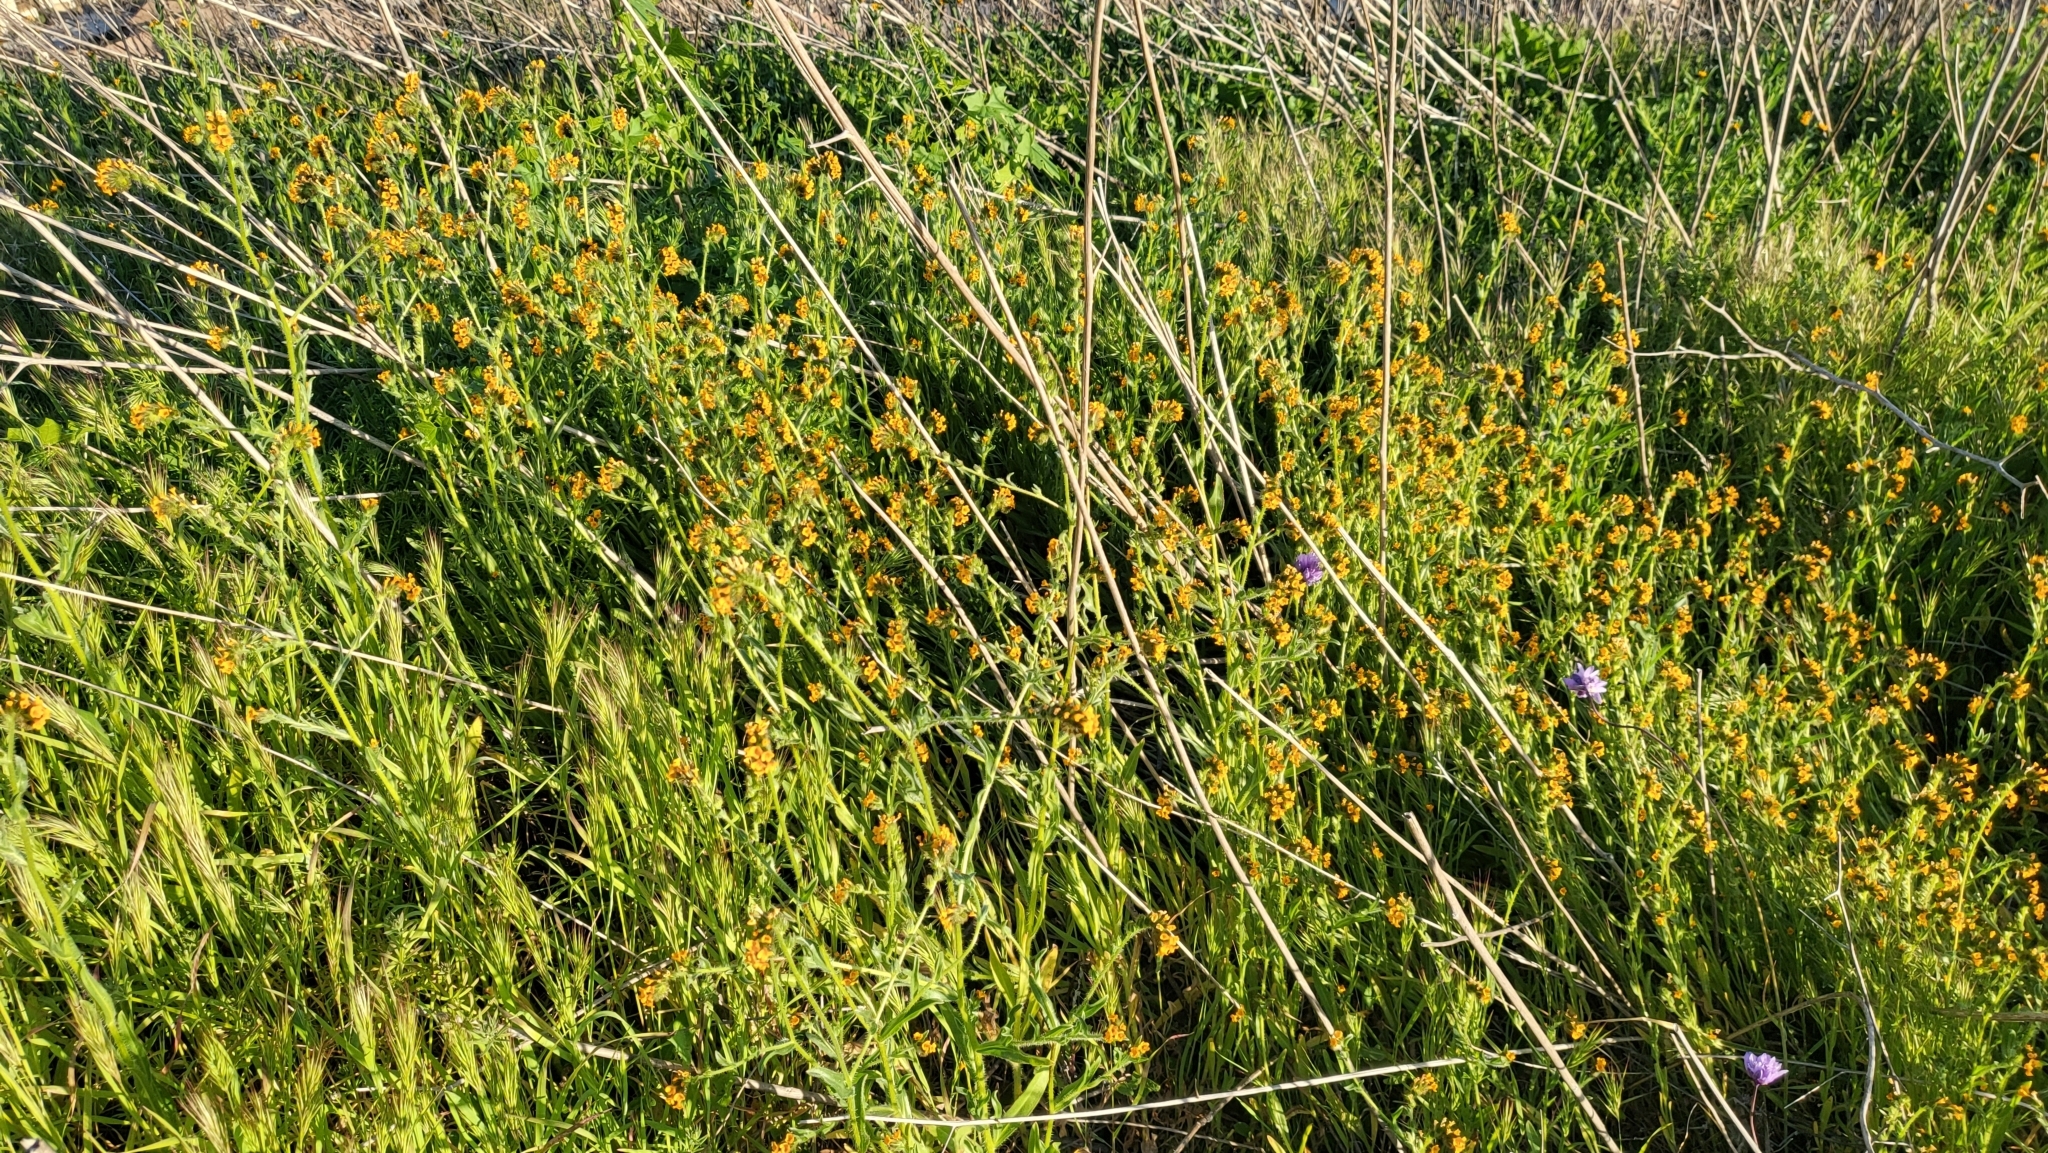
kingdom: Plantae
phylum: Tracheophyta
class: Magnoliopsida
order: Boraginales
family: Boraginaceae
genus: Amsinckia
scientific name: Amsinckia menziesii
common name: Menzies' fiddleneck
